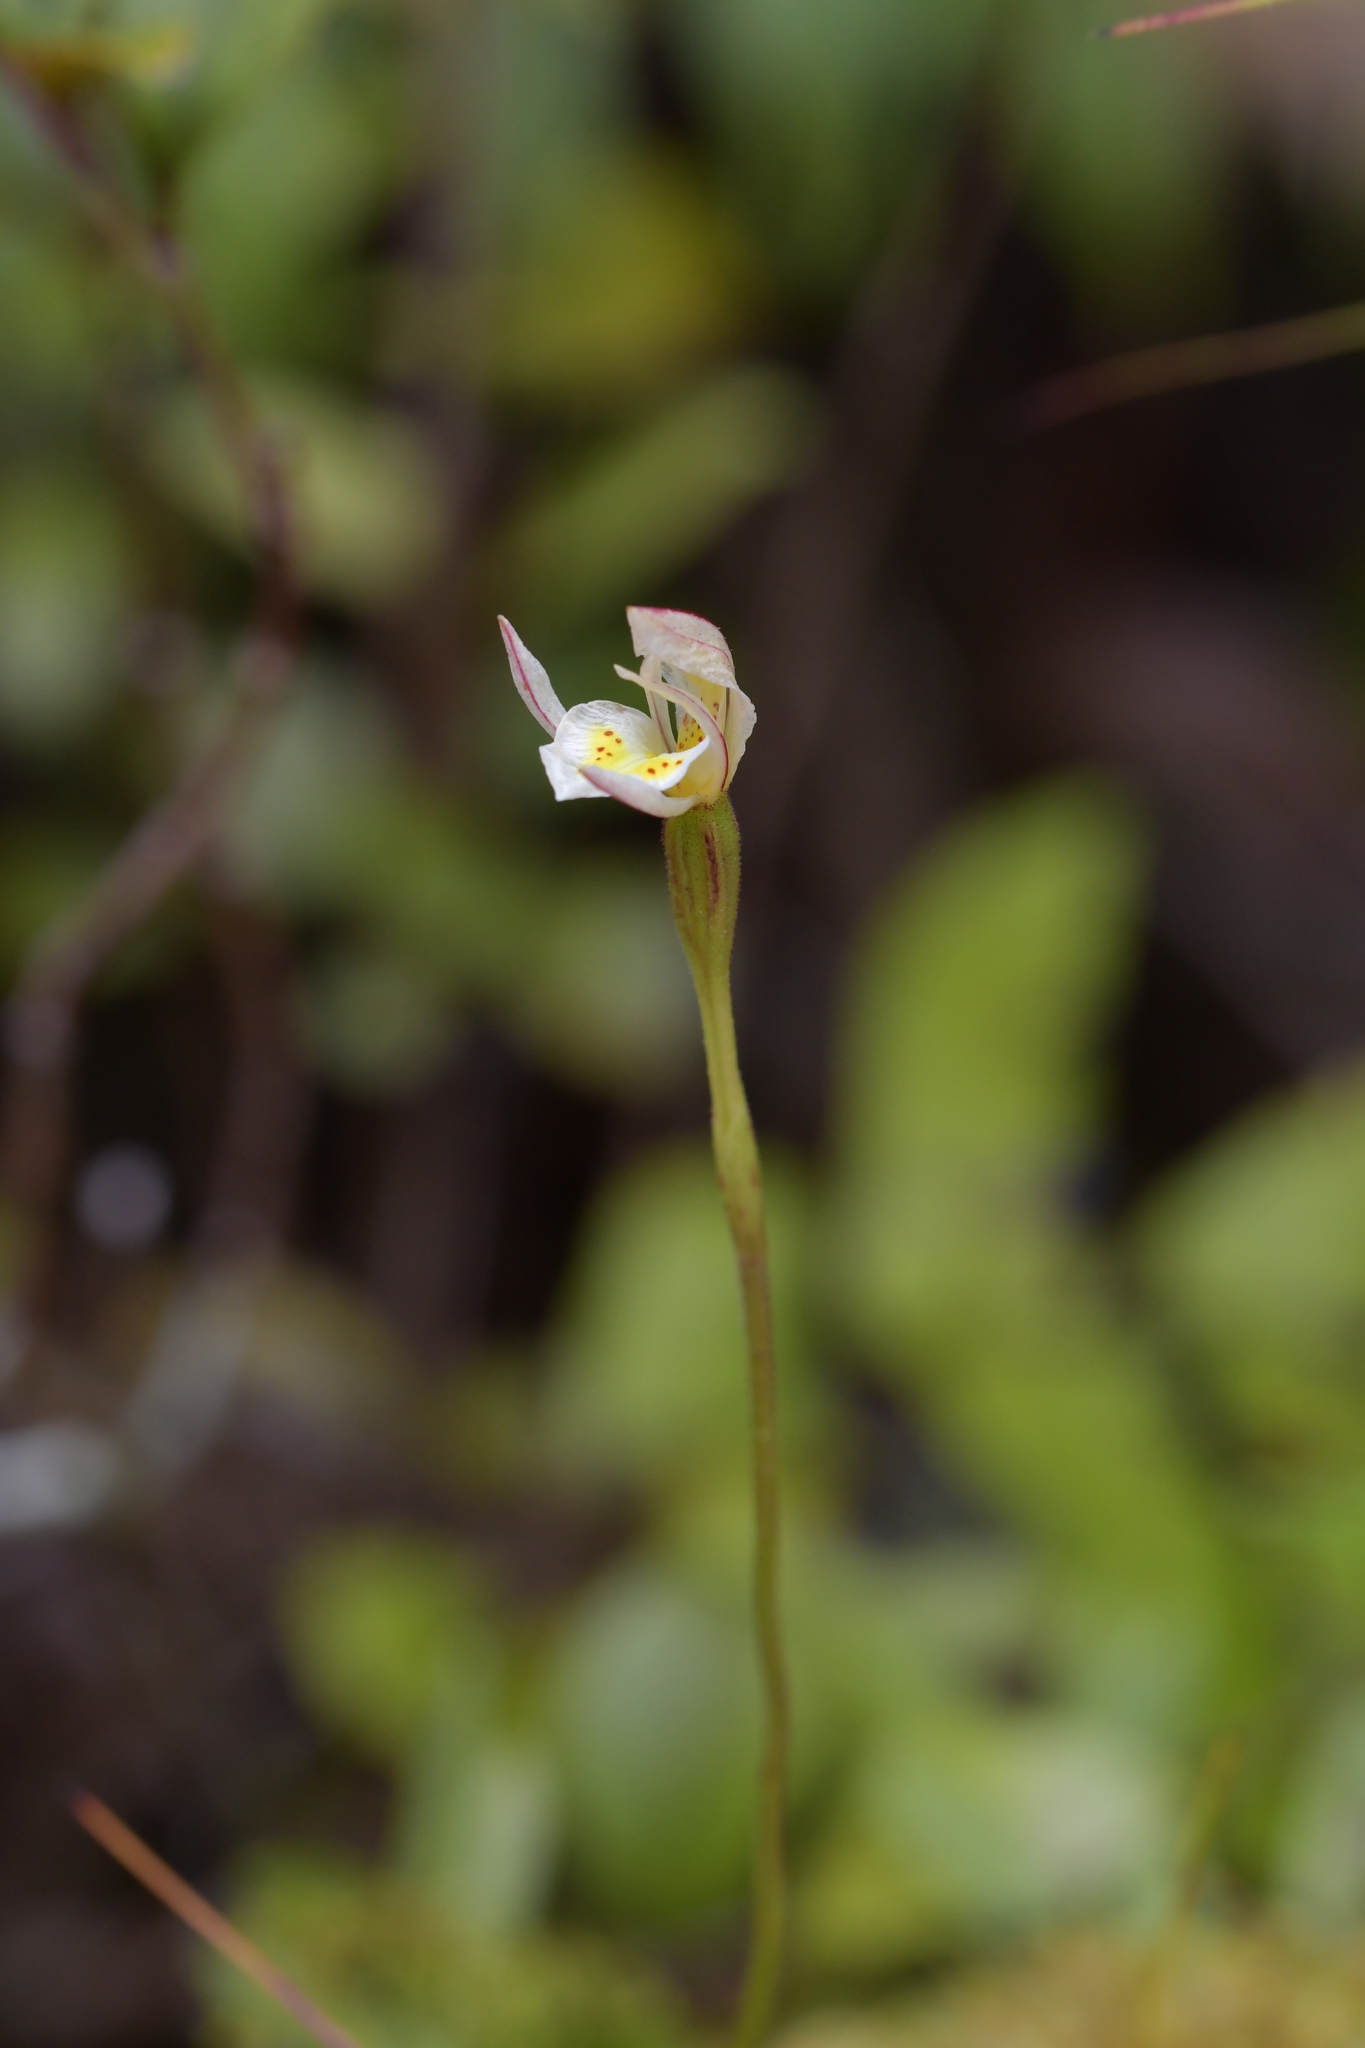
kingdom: Plantae
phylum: Tracheophyta
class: Liliopsida
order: Asparagales
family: Orchidaceae
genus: Aporostylis
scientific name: Aporostylis bifolia
